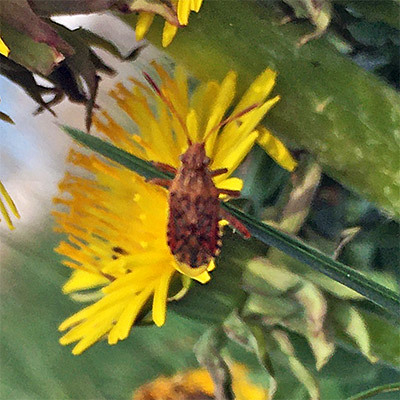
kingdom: Animalia
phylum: Arthropoda
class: Insecta
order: Hemiptera
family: Rhopalidae
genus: Stictopleurus
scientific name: Stictopleurus abutilon
